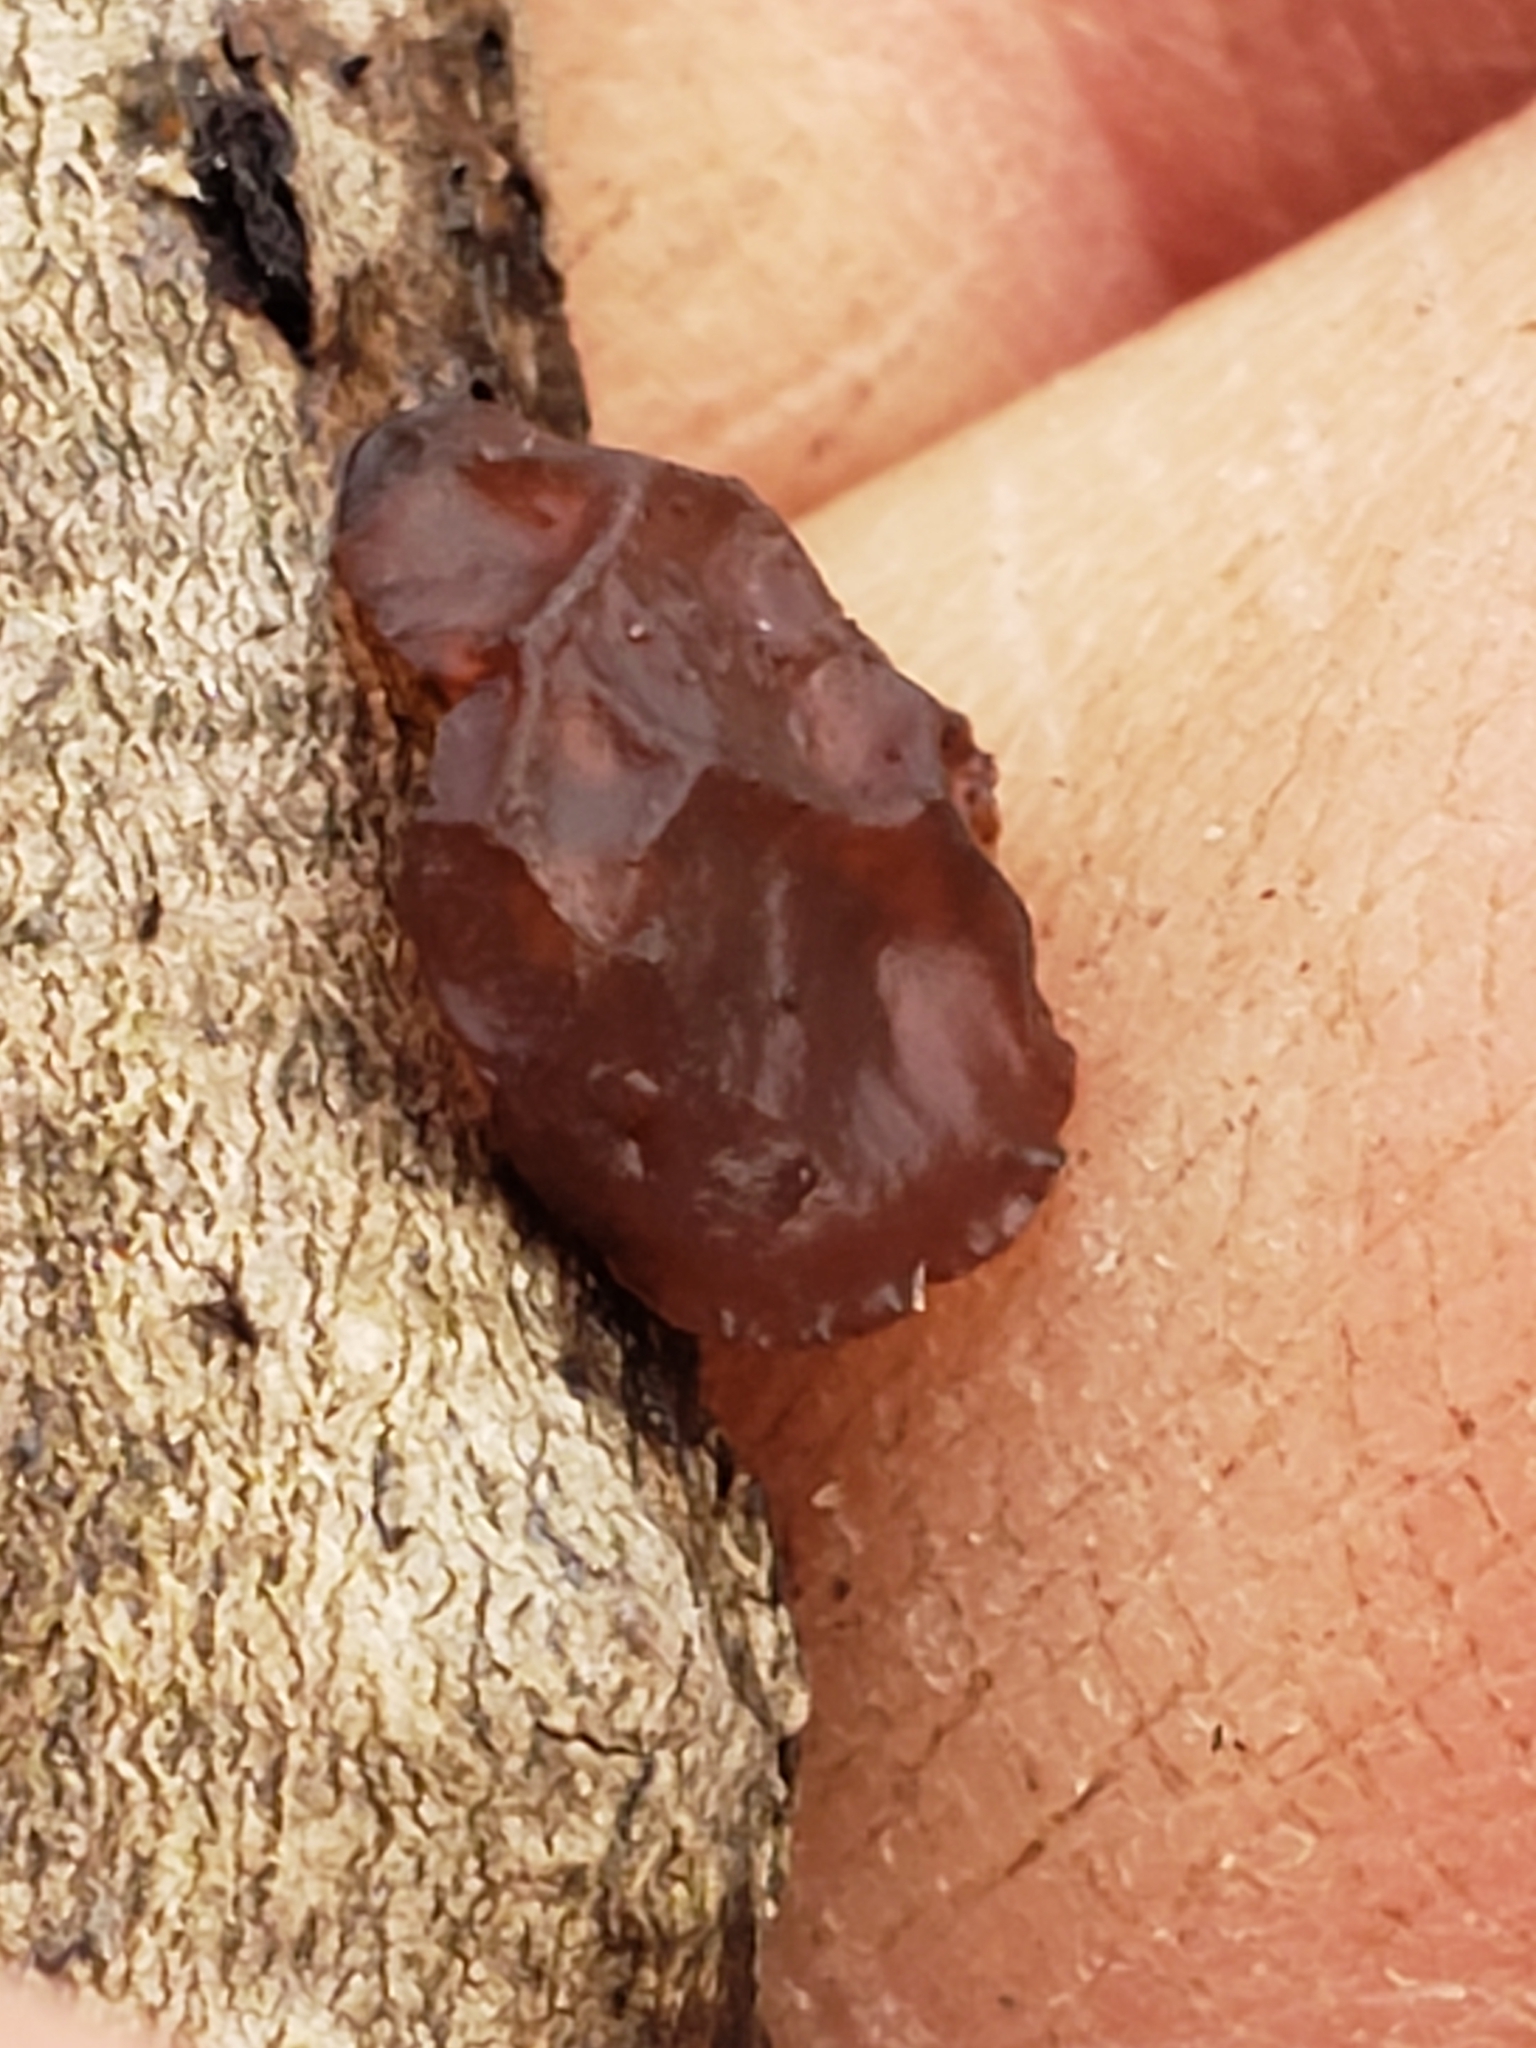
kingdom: Fungi
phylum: Basidiomycota
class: Agaricomycetes
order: Auriculariales
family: Auriculariaceae
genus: Exidia
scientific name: Exidia
